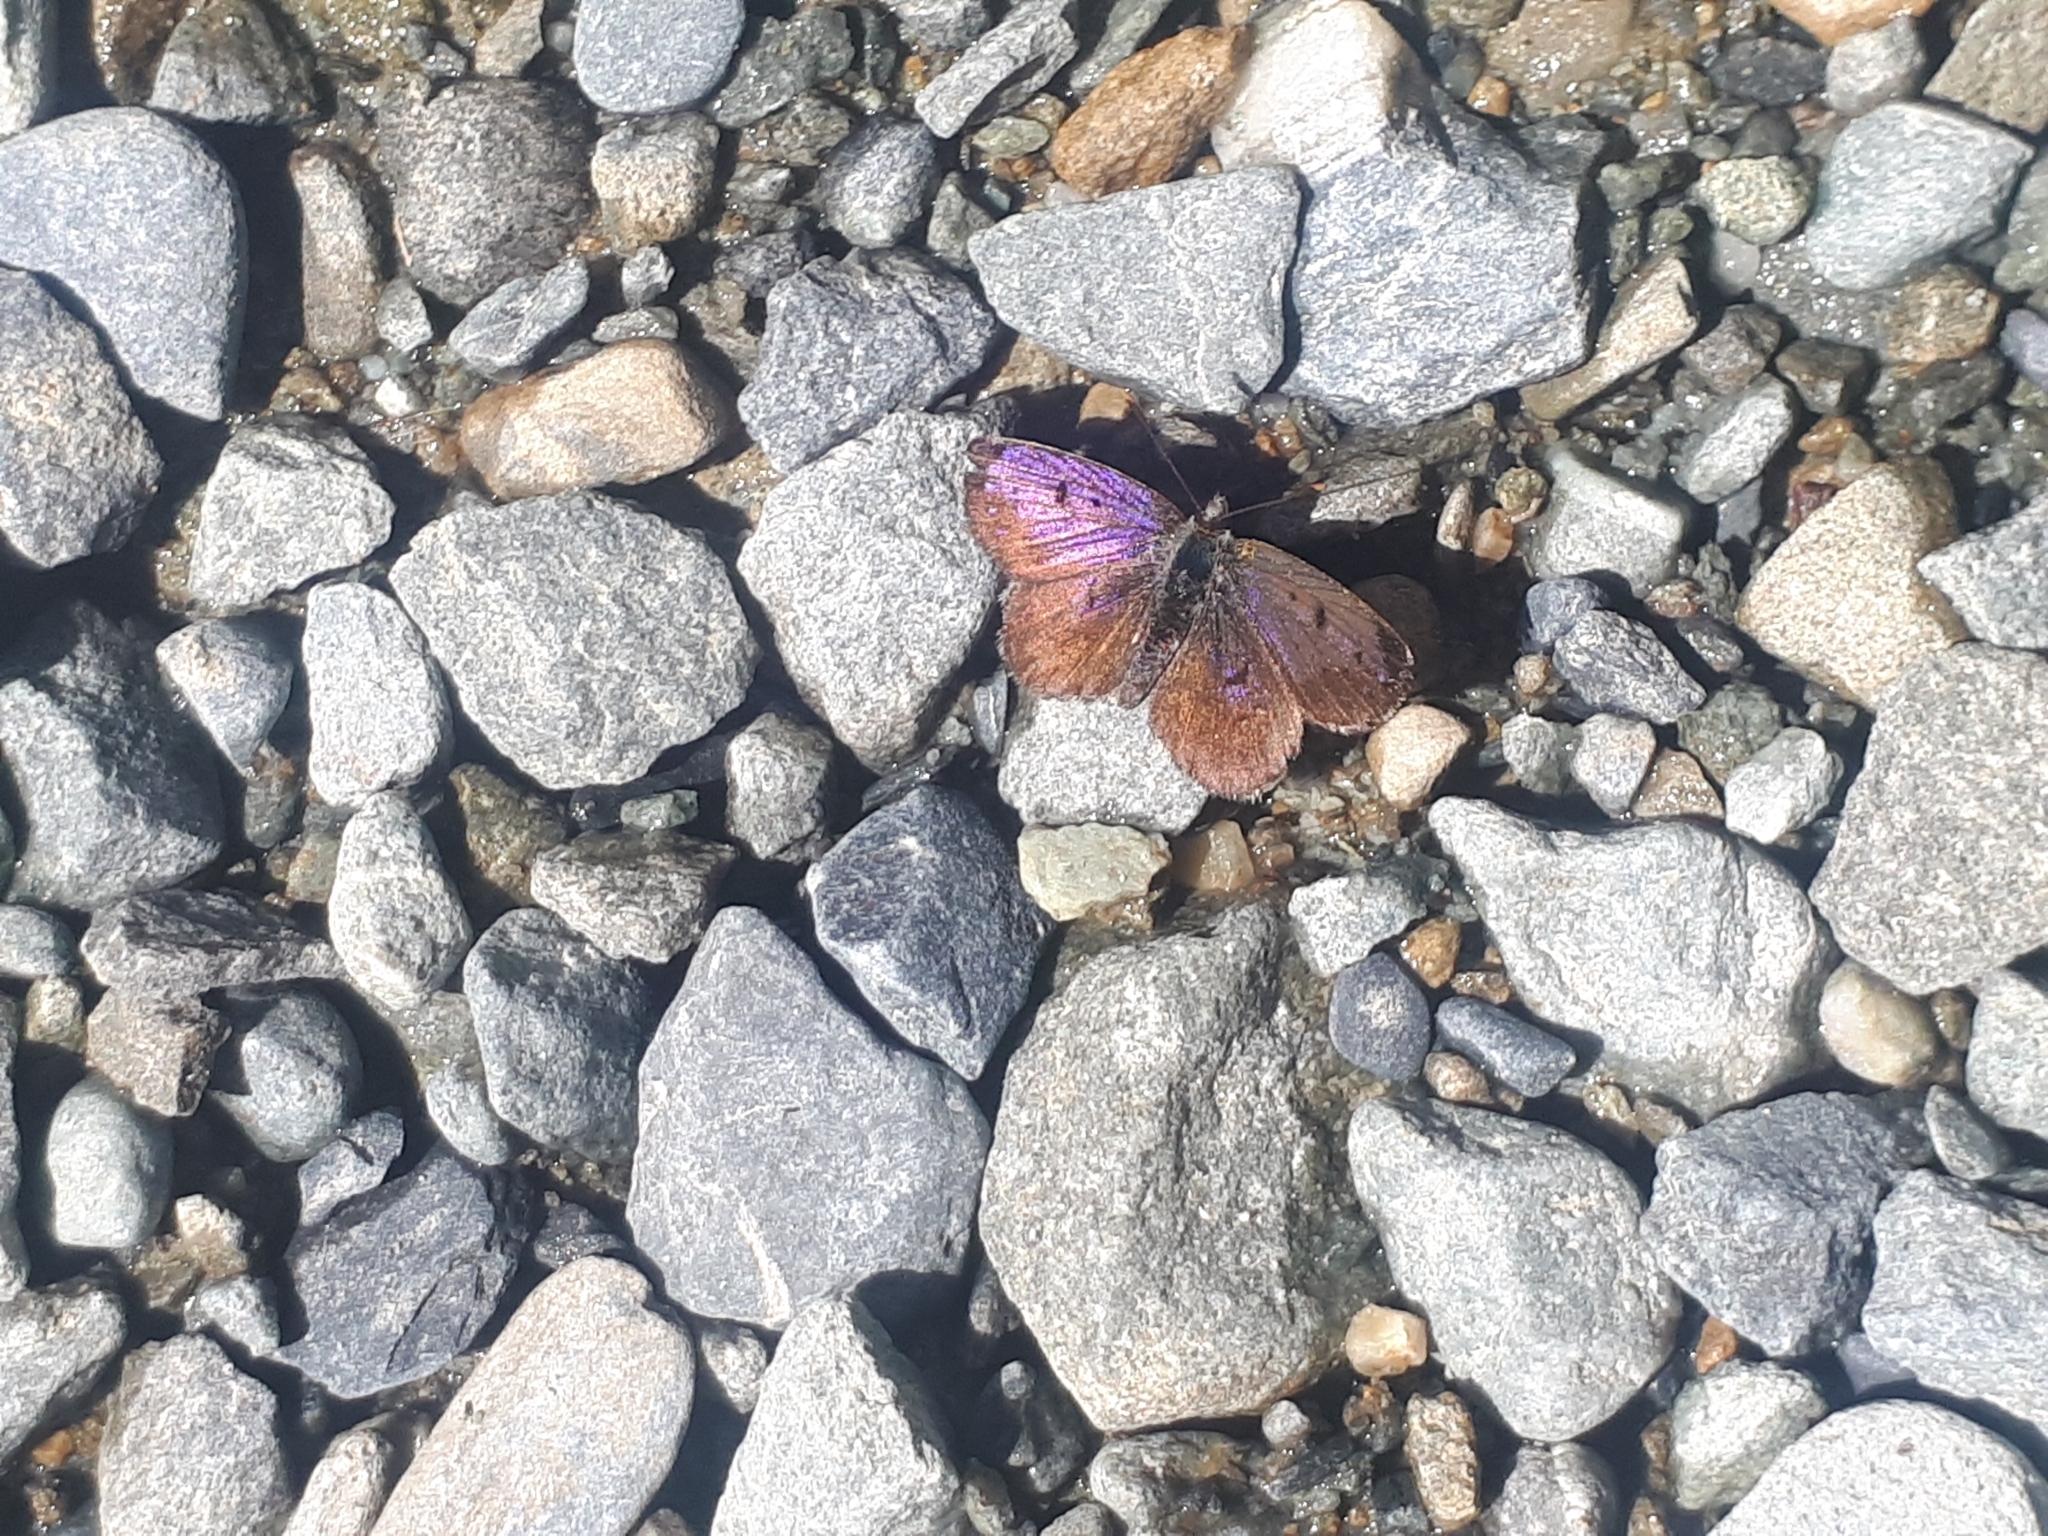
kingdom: Animalia
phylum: Arthropoda
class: Insecta
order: Lepidoptera
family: Lycaenidae
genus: Lycaena
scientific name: Lycaena boldenarum
